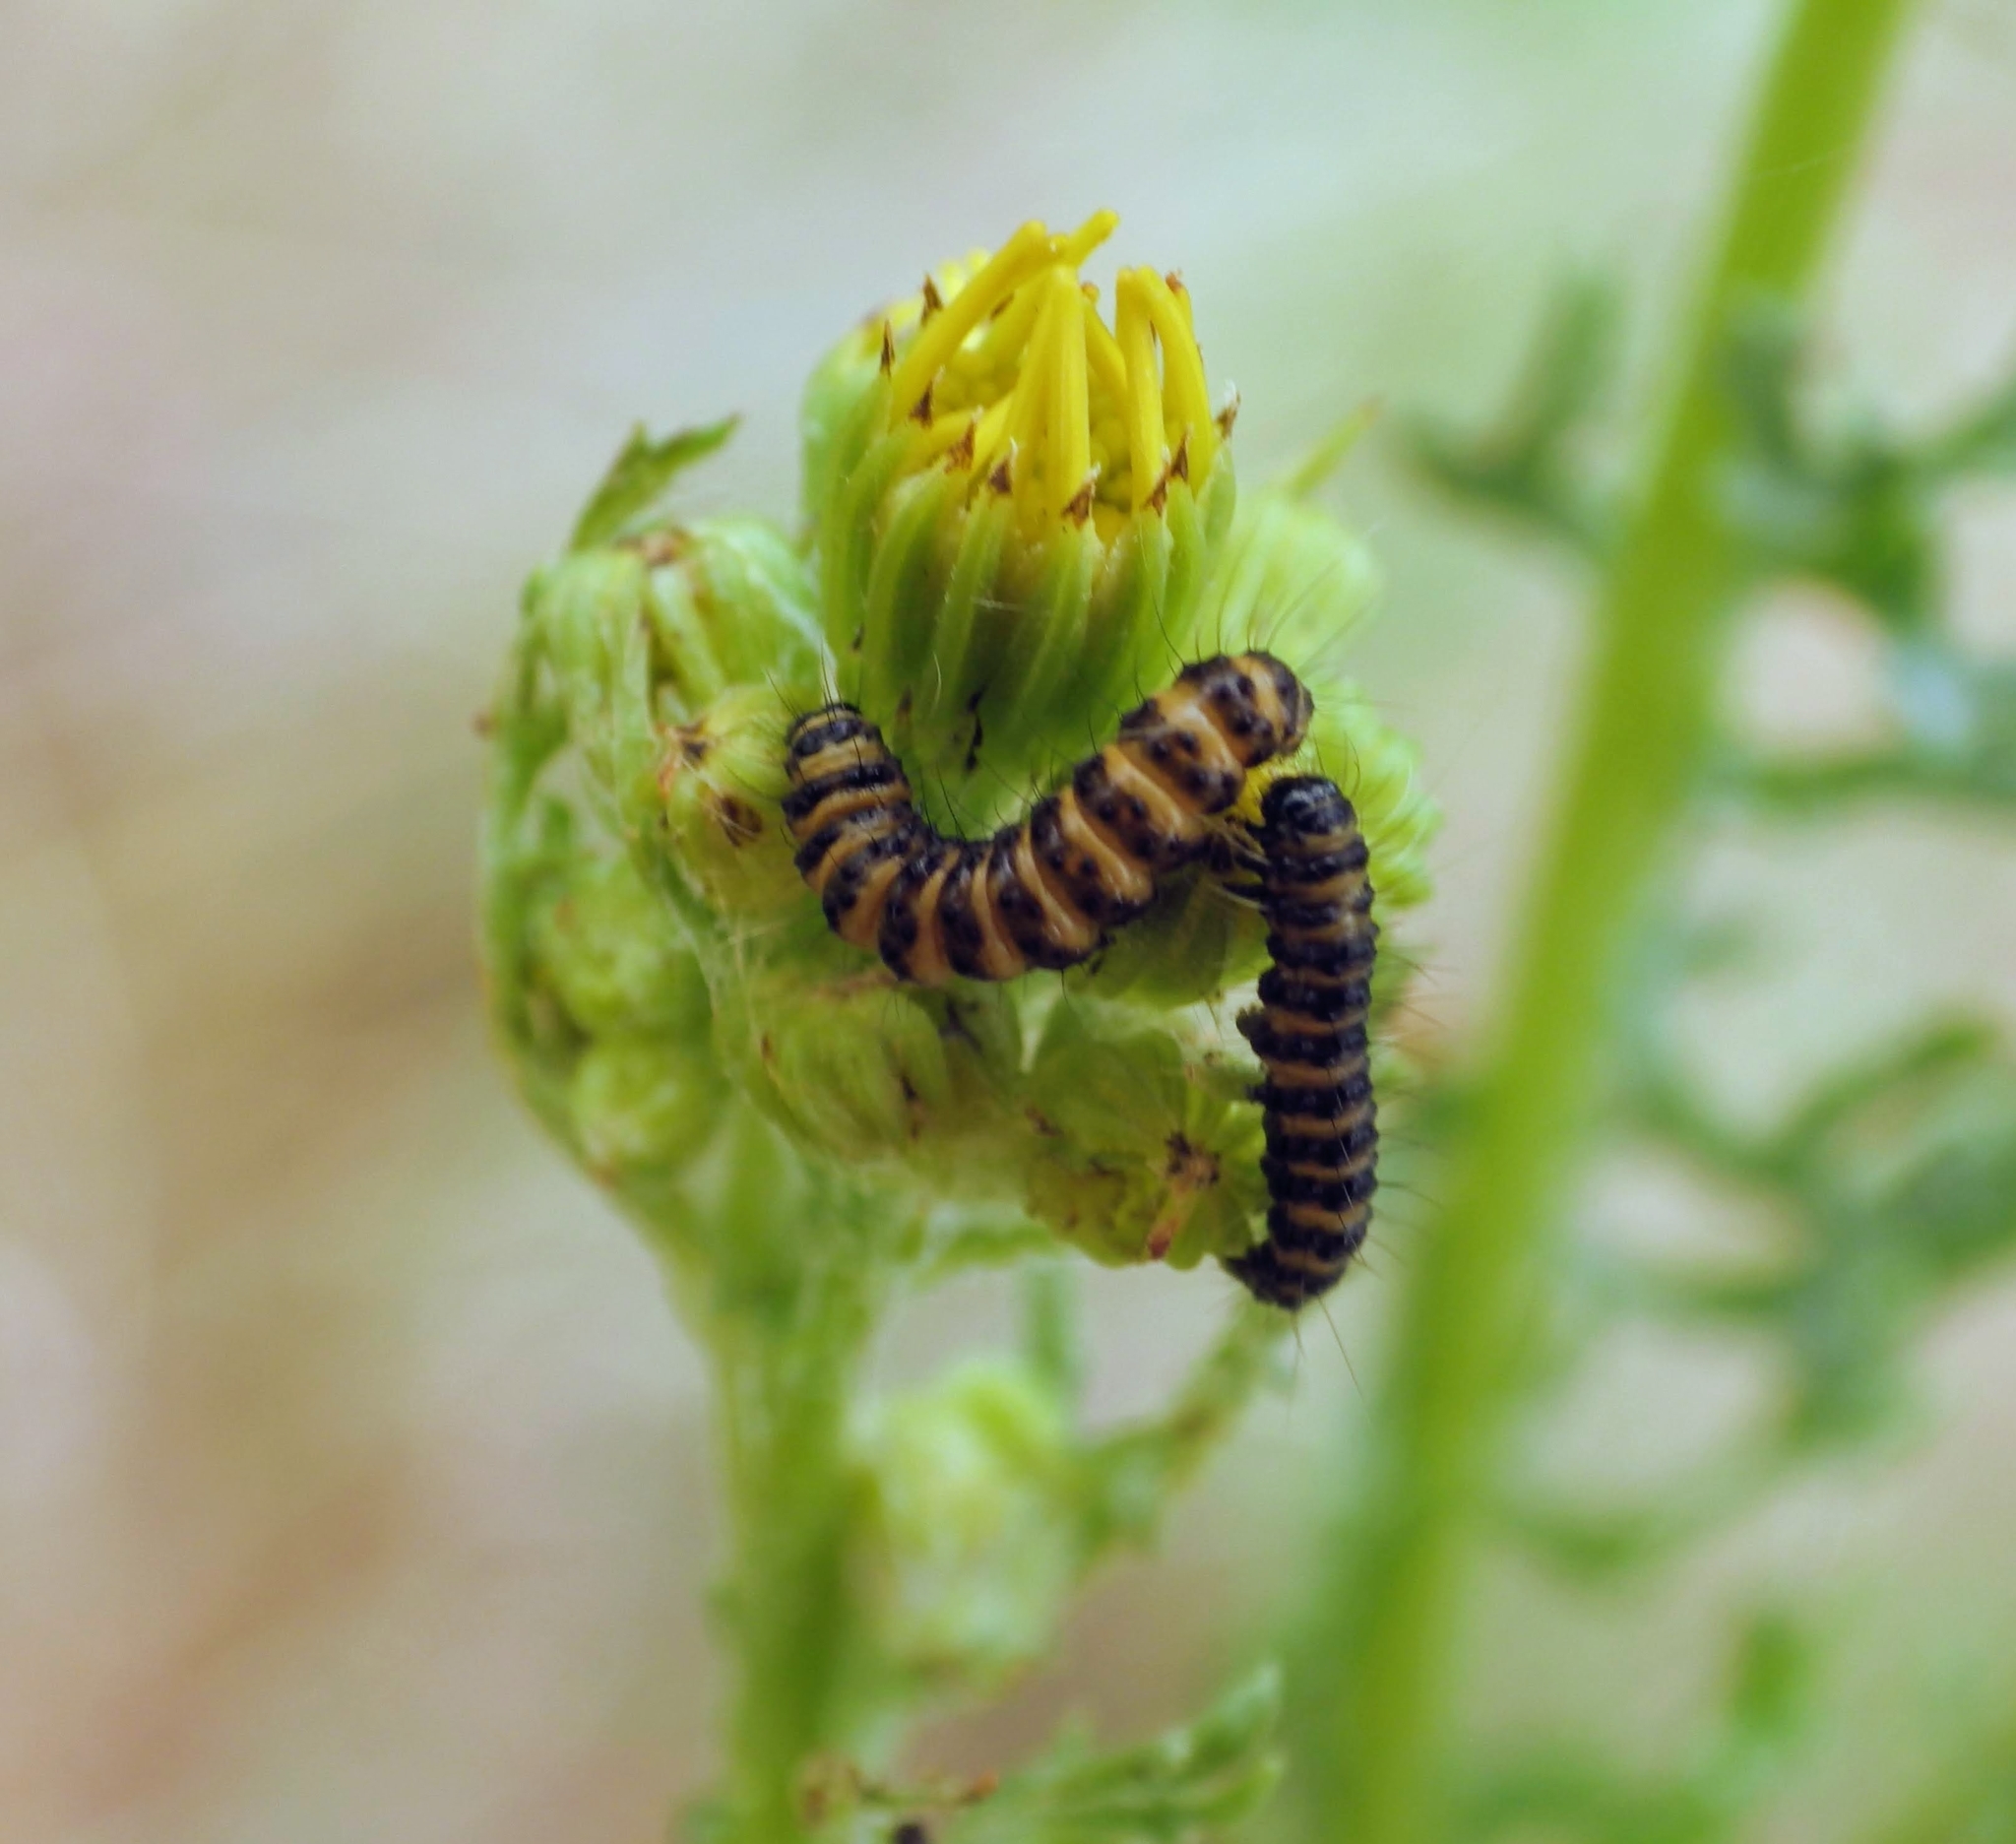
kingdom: Animalia
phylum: Arthropoda
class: Insecta
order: Lepidoptera
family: Erebidae
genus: Tyria
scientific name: Tyria jacobaeae
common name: Cinnabar
